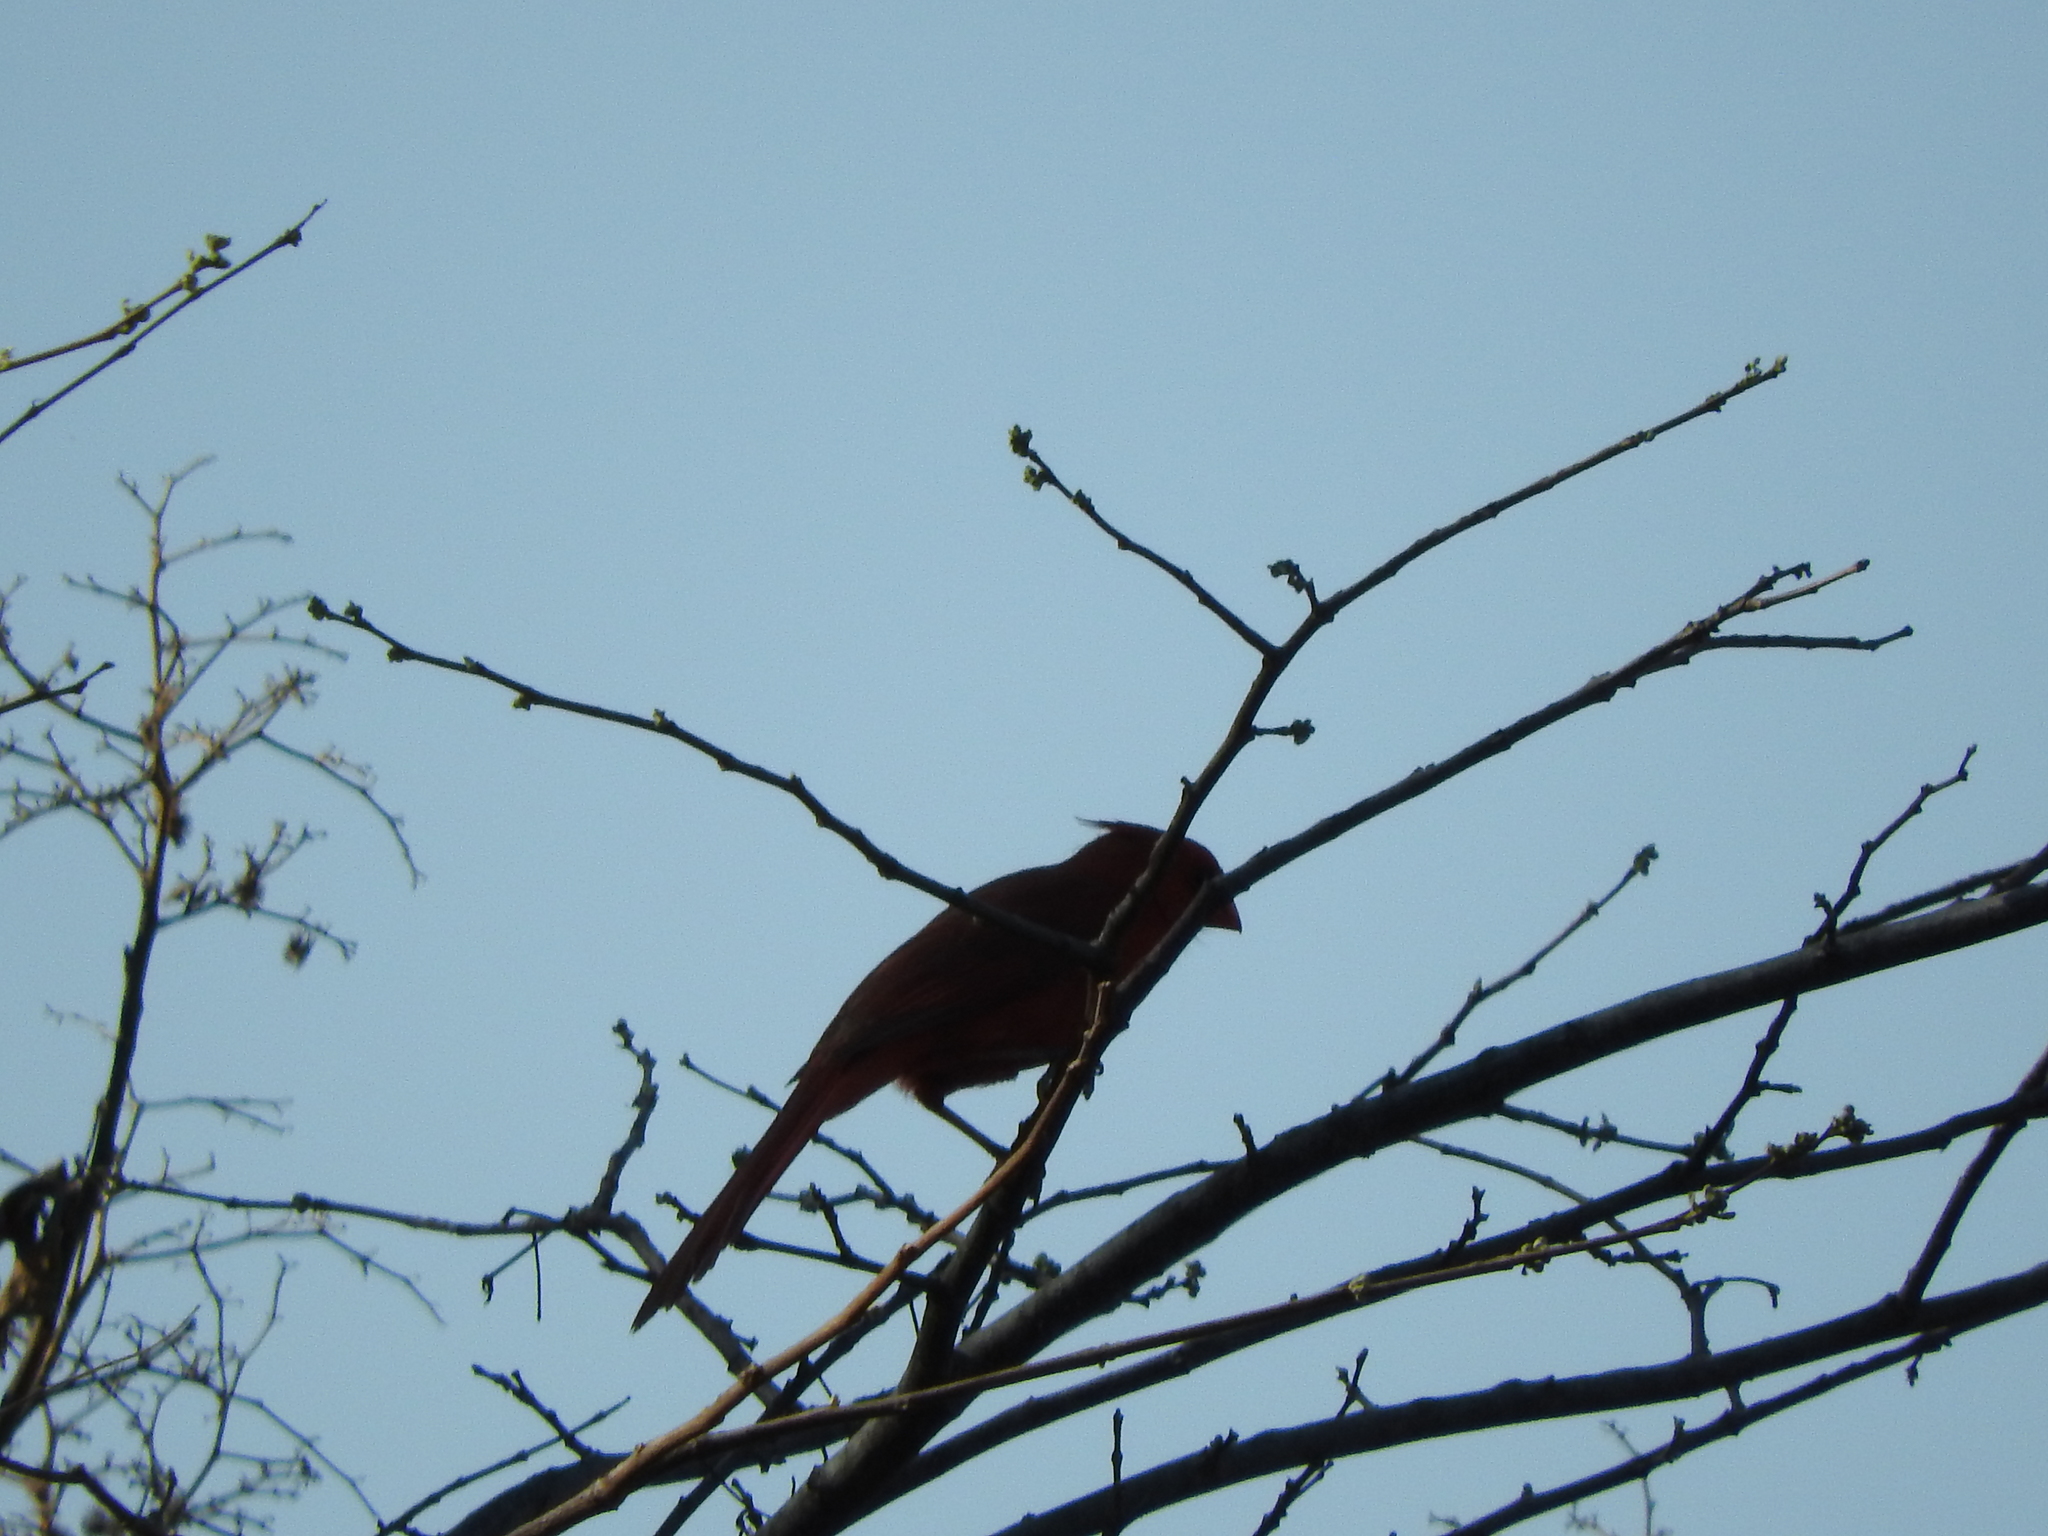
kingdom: Animalia
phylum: Chordata
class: Aves
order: Passeriformes
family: Cardinalidae
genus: Cardinalis
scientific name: Cardinalis cardinalis
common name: Northern cardinal
